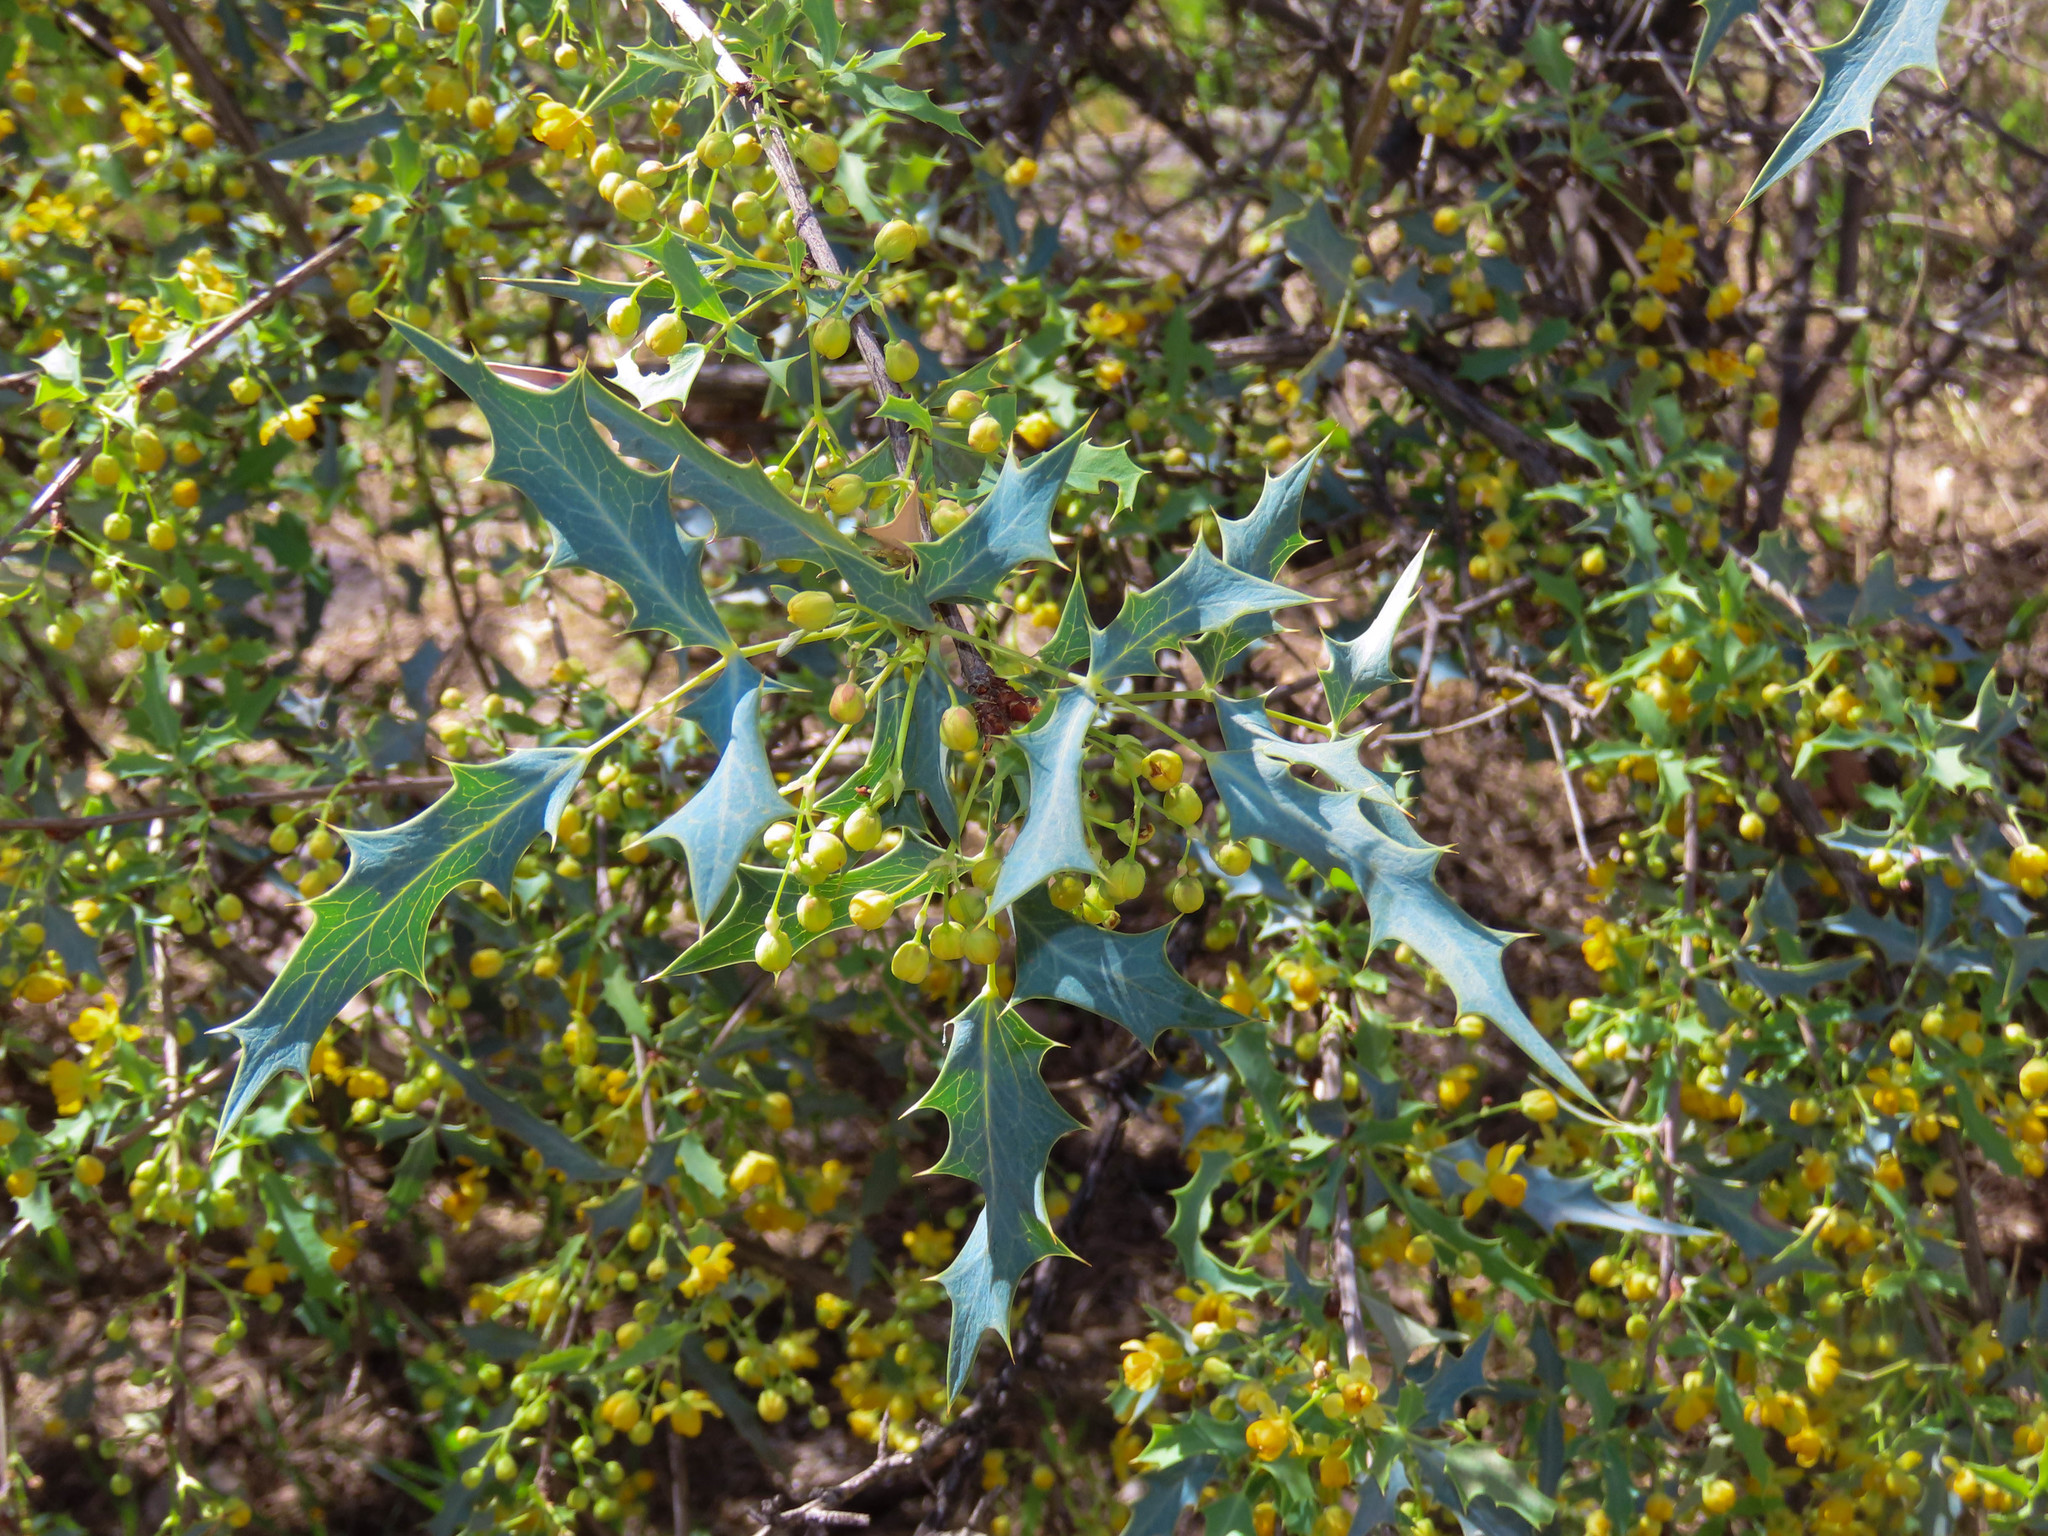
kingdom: Plantae
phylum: Tracheophyta
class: Magnoliopsida
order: Ranunculales
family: Berberidaceae
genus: Alloberberis
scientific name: Alloberberis haematocarpa
